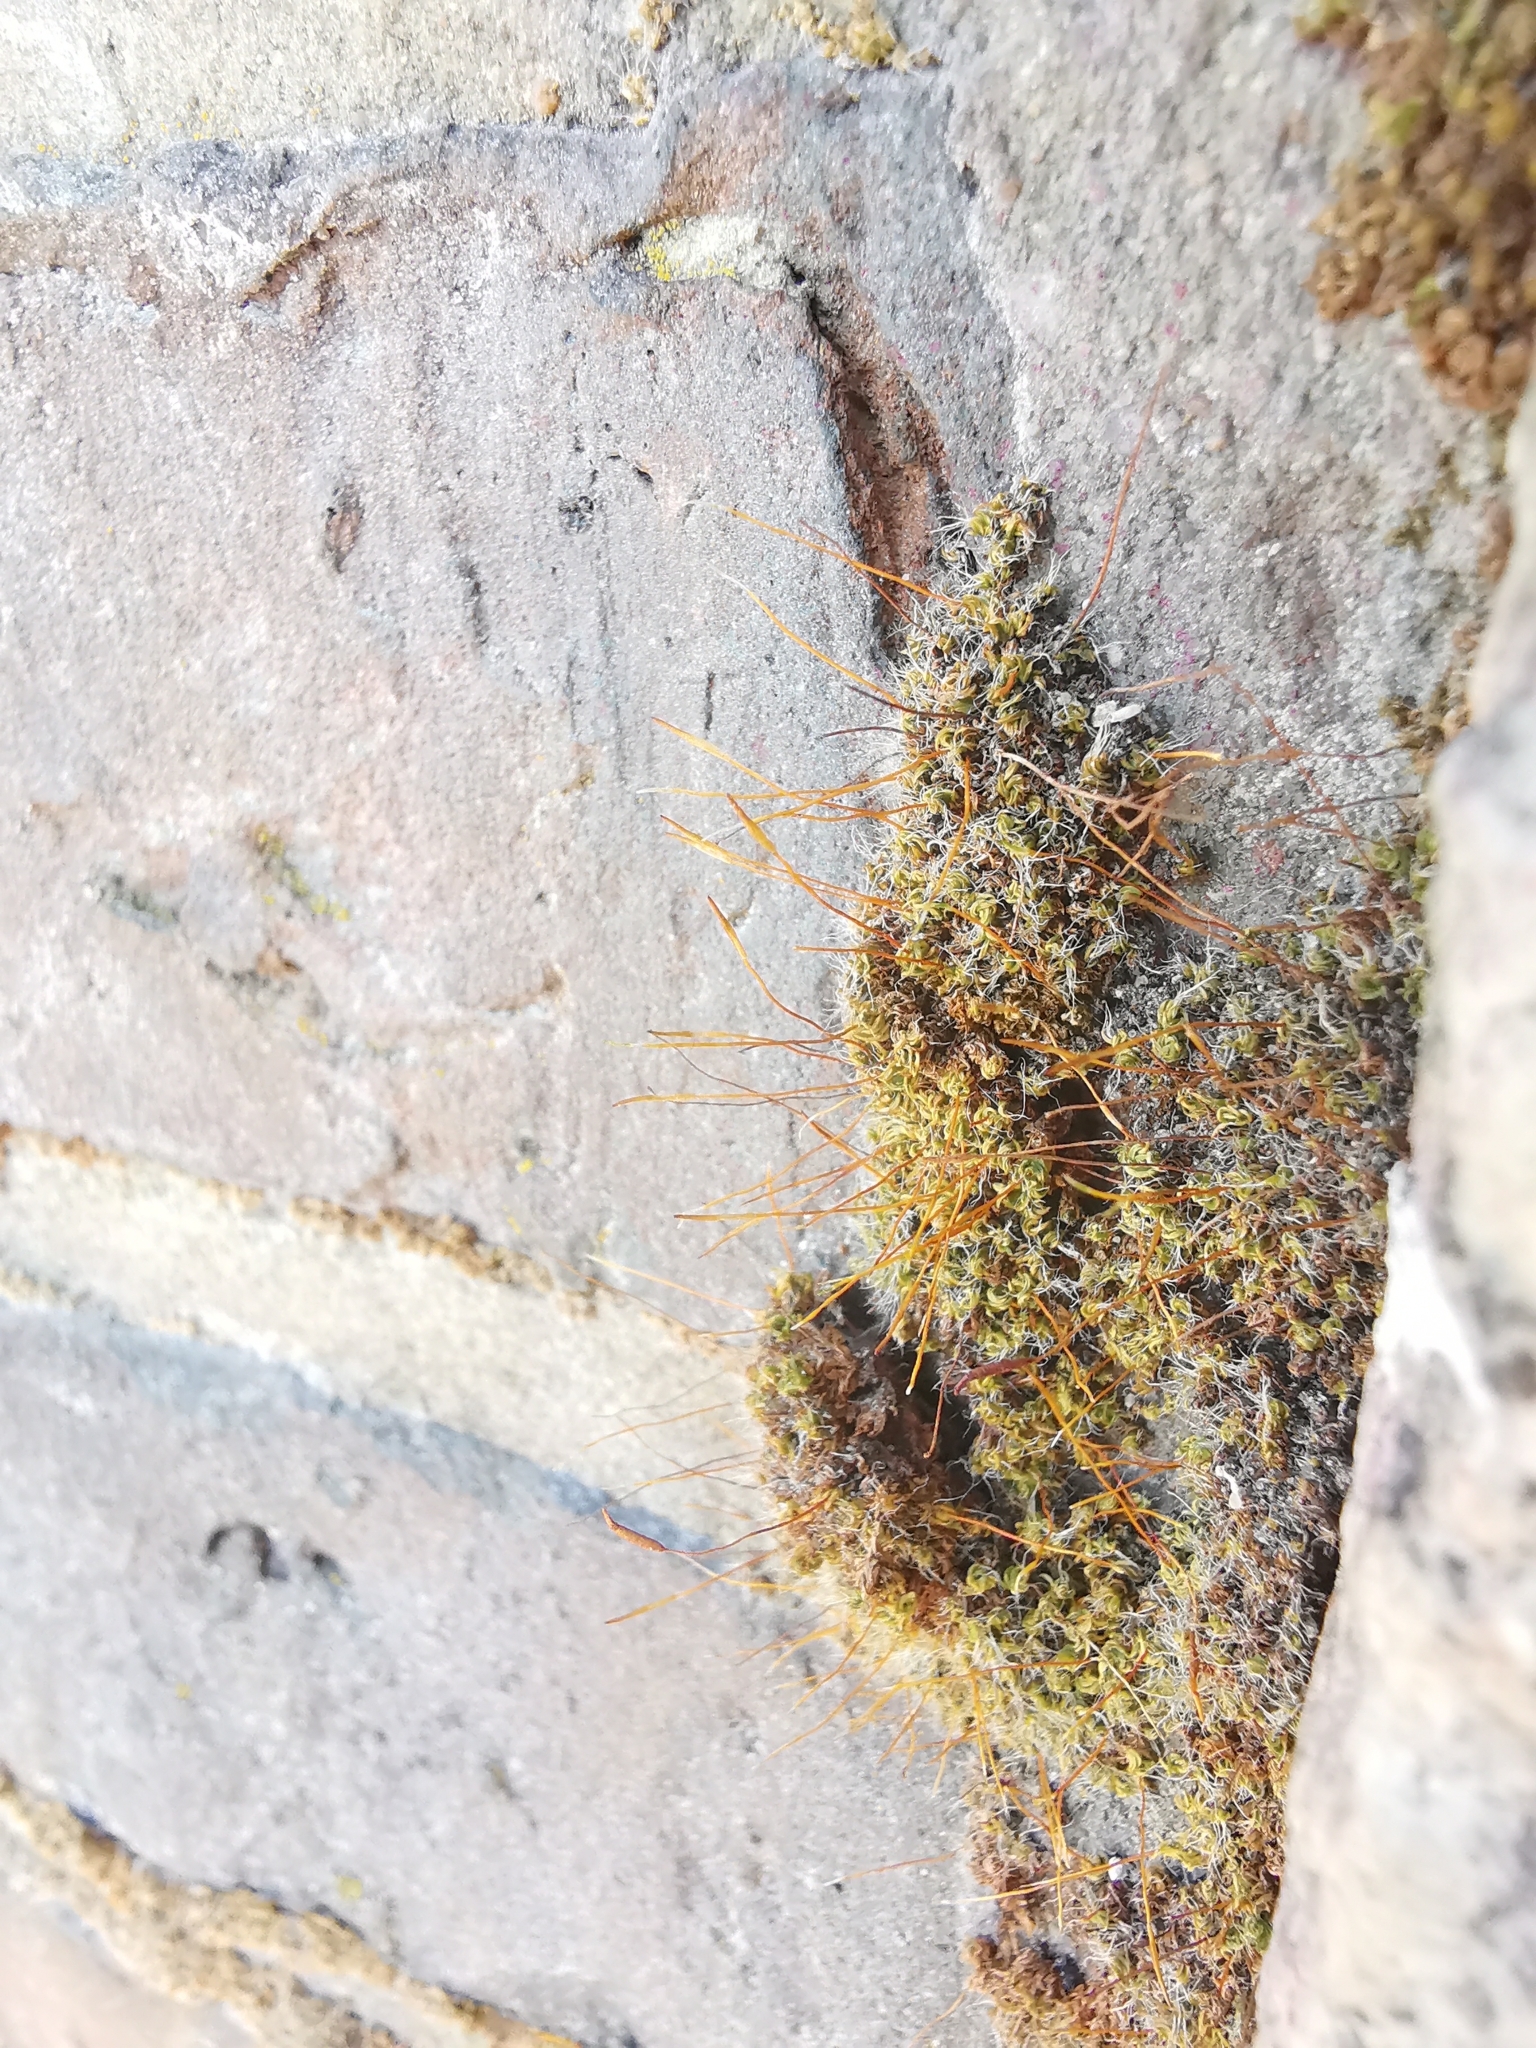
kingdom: Plantae
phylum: Bryophyta
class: Bryopsida
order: Pottiales
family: Pottiaceae
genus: Tortula
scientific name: Tortula muralis
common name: Wall screw-moss
